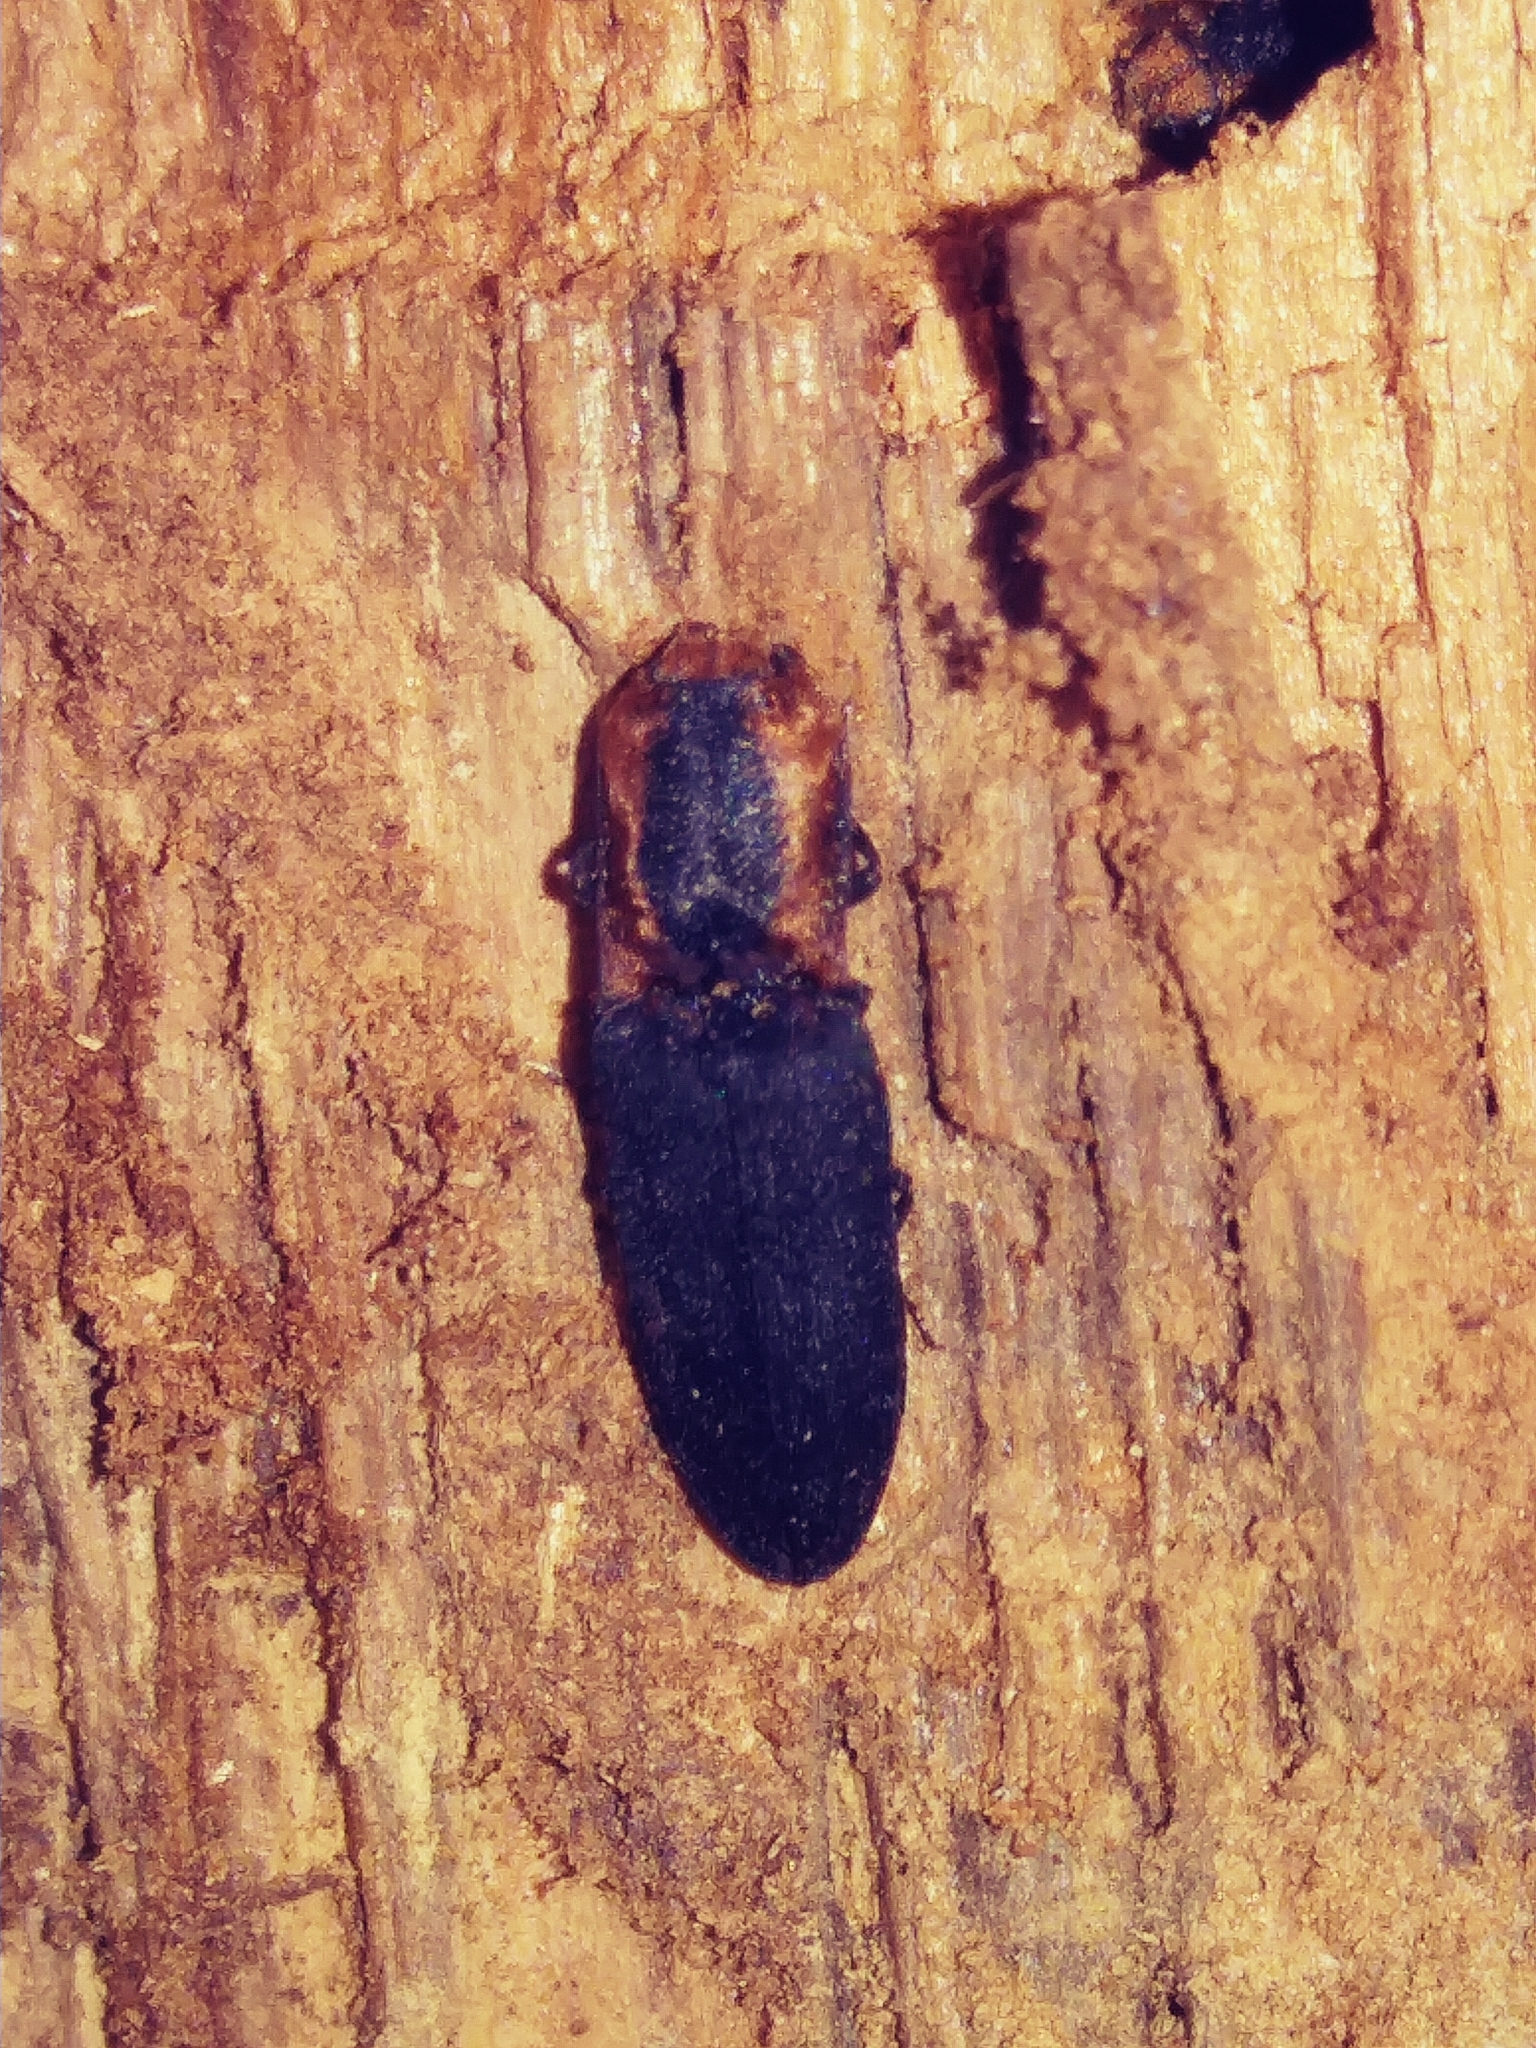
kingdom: Animalia
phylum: Arthropoda
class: Insecta
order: Coleoptera
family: Elateridae
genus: Lacon
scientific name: Lacon discoideus
